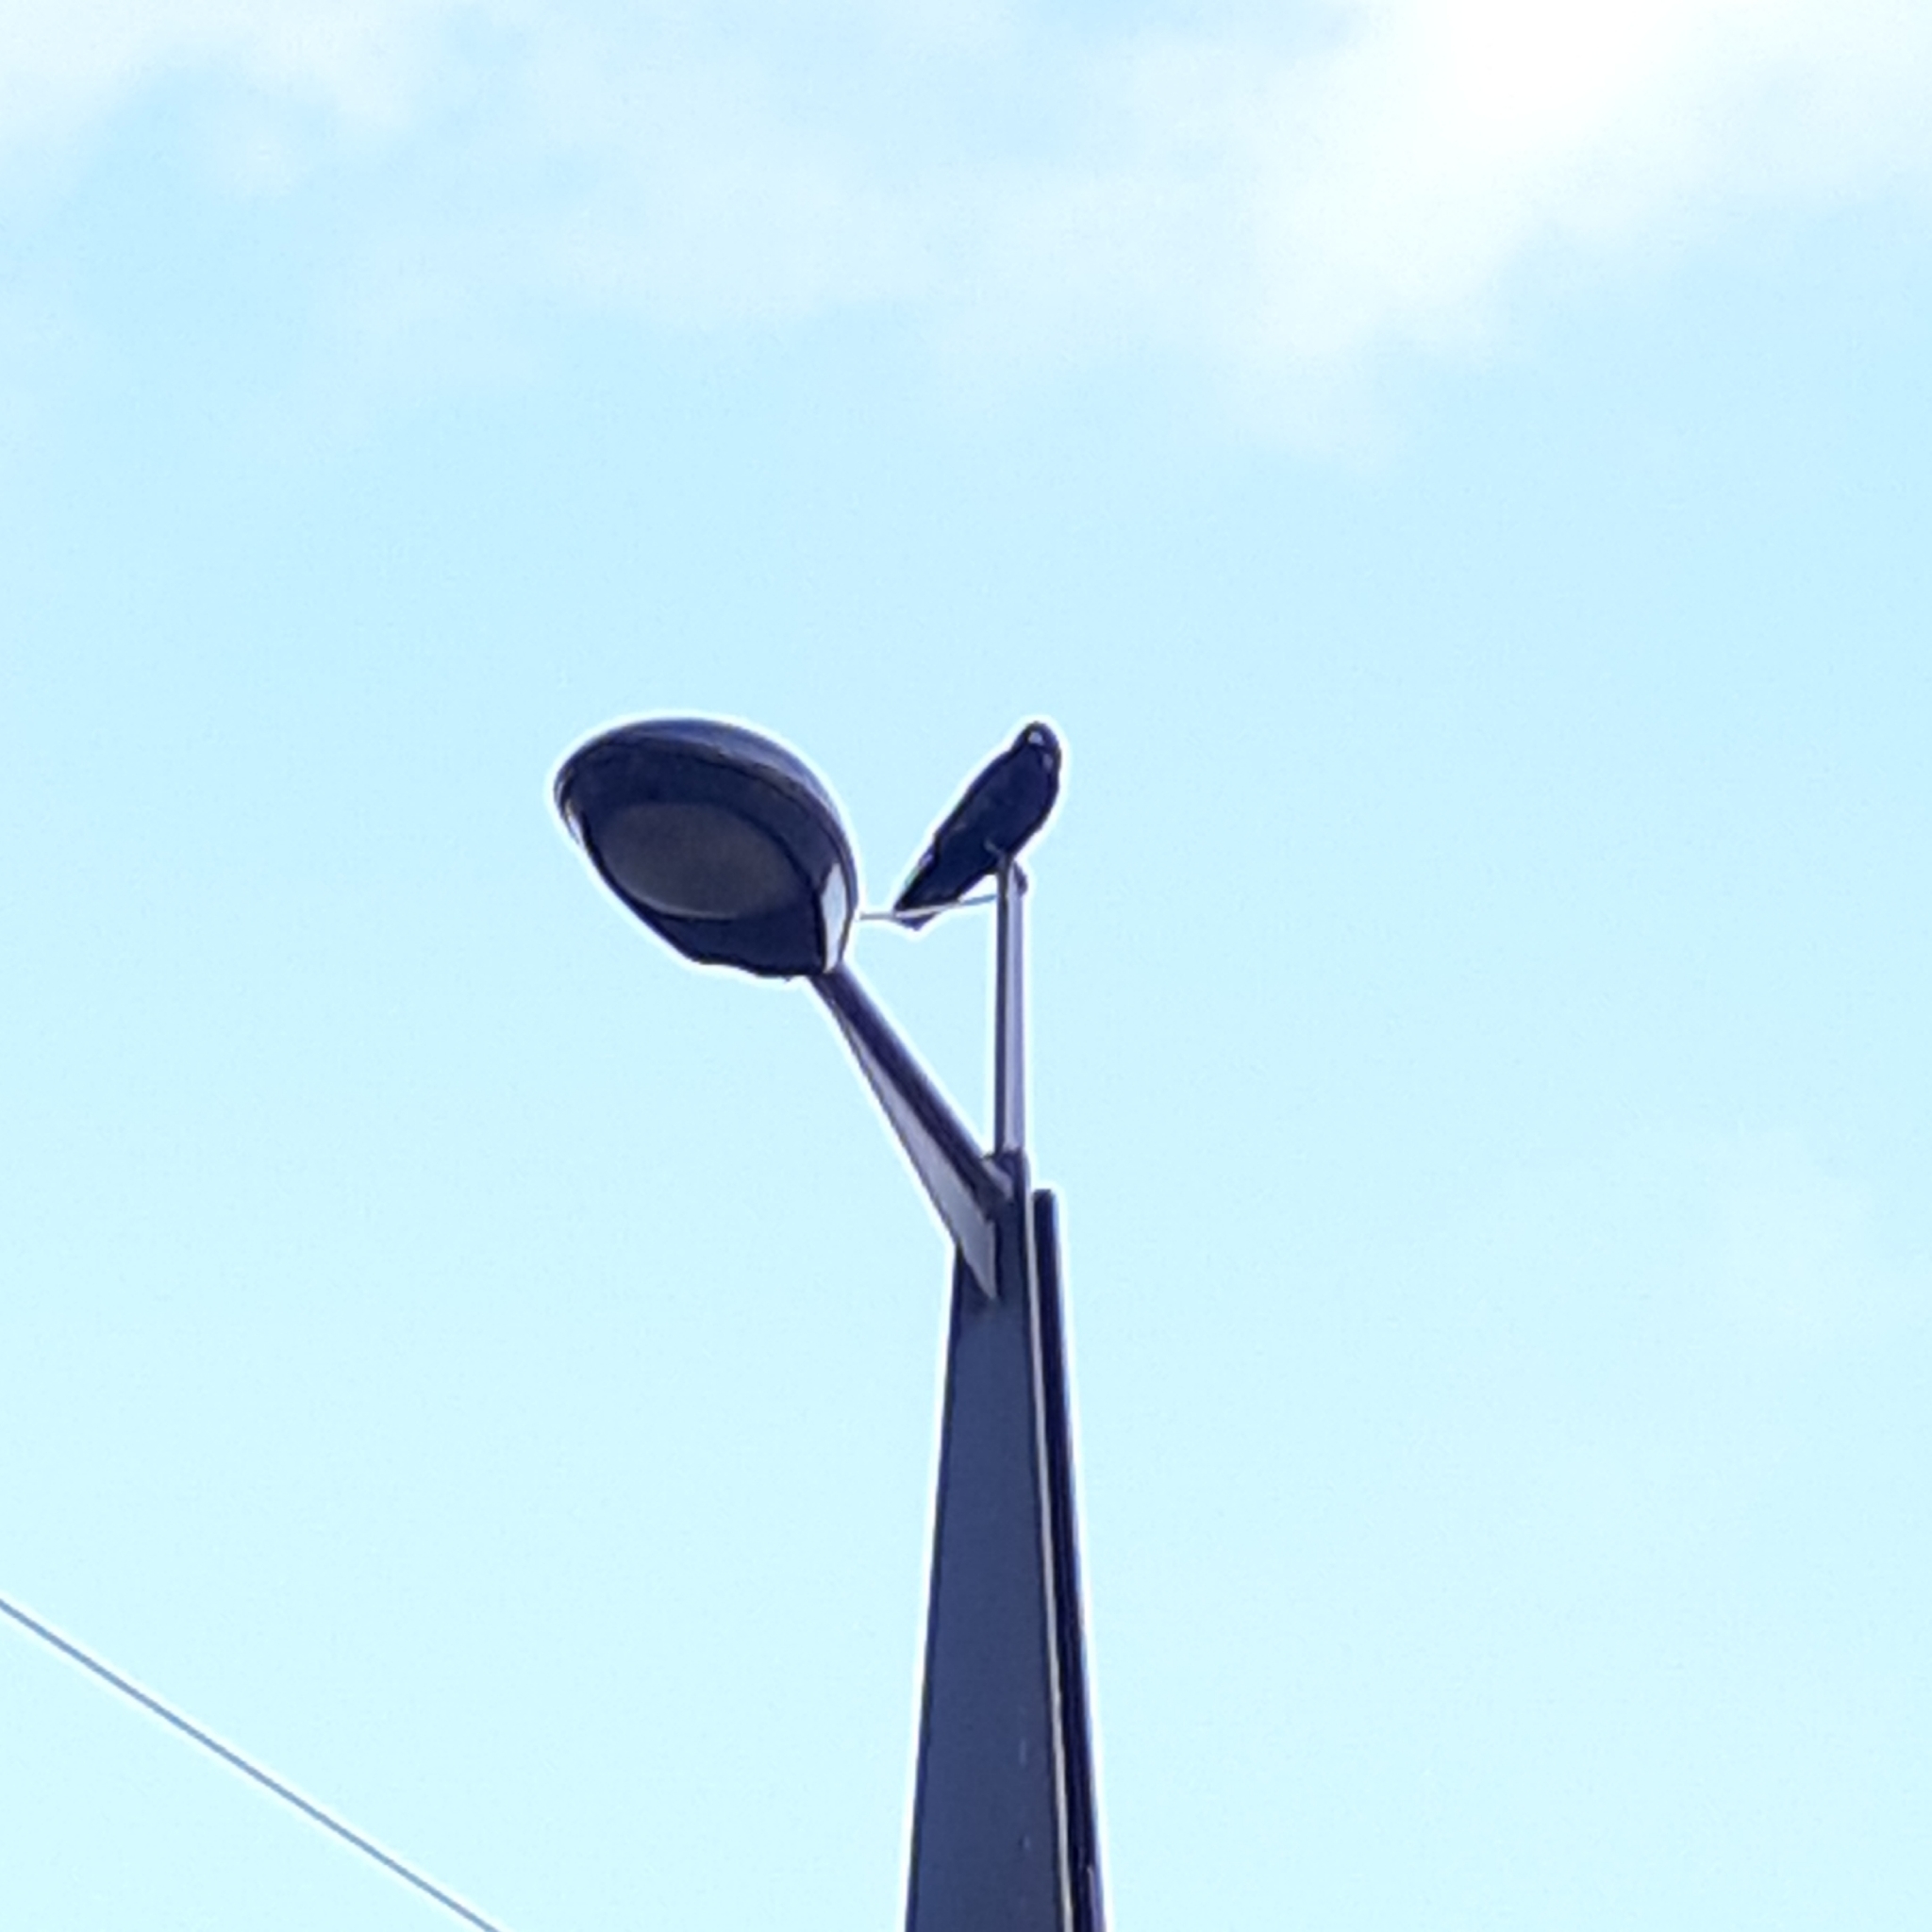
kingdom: Animalia
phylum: Chordata
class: Aves
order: Passeriformes
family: Corvidae
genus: Corvus
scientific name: Corvus corone
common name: Carrion crow
